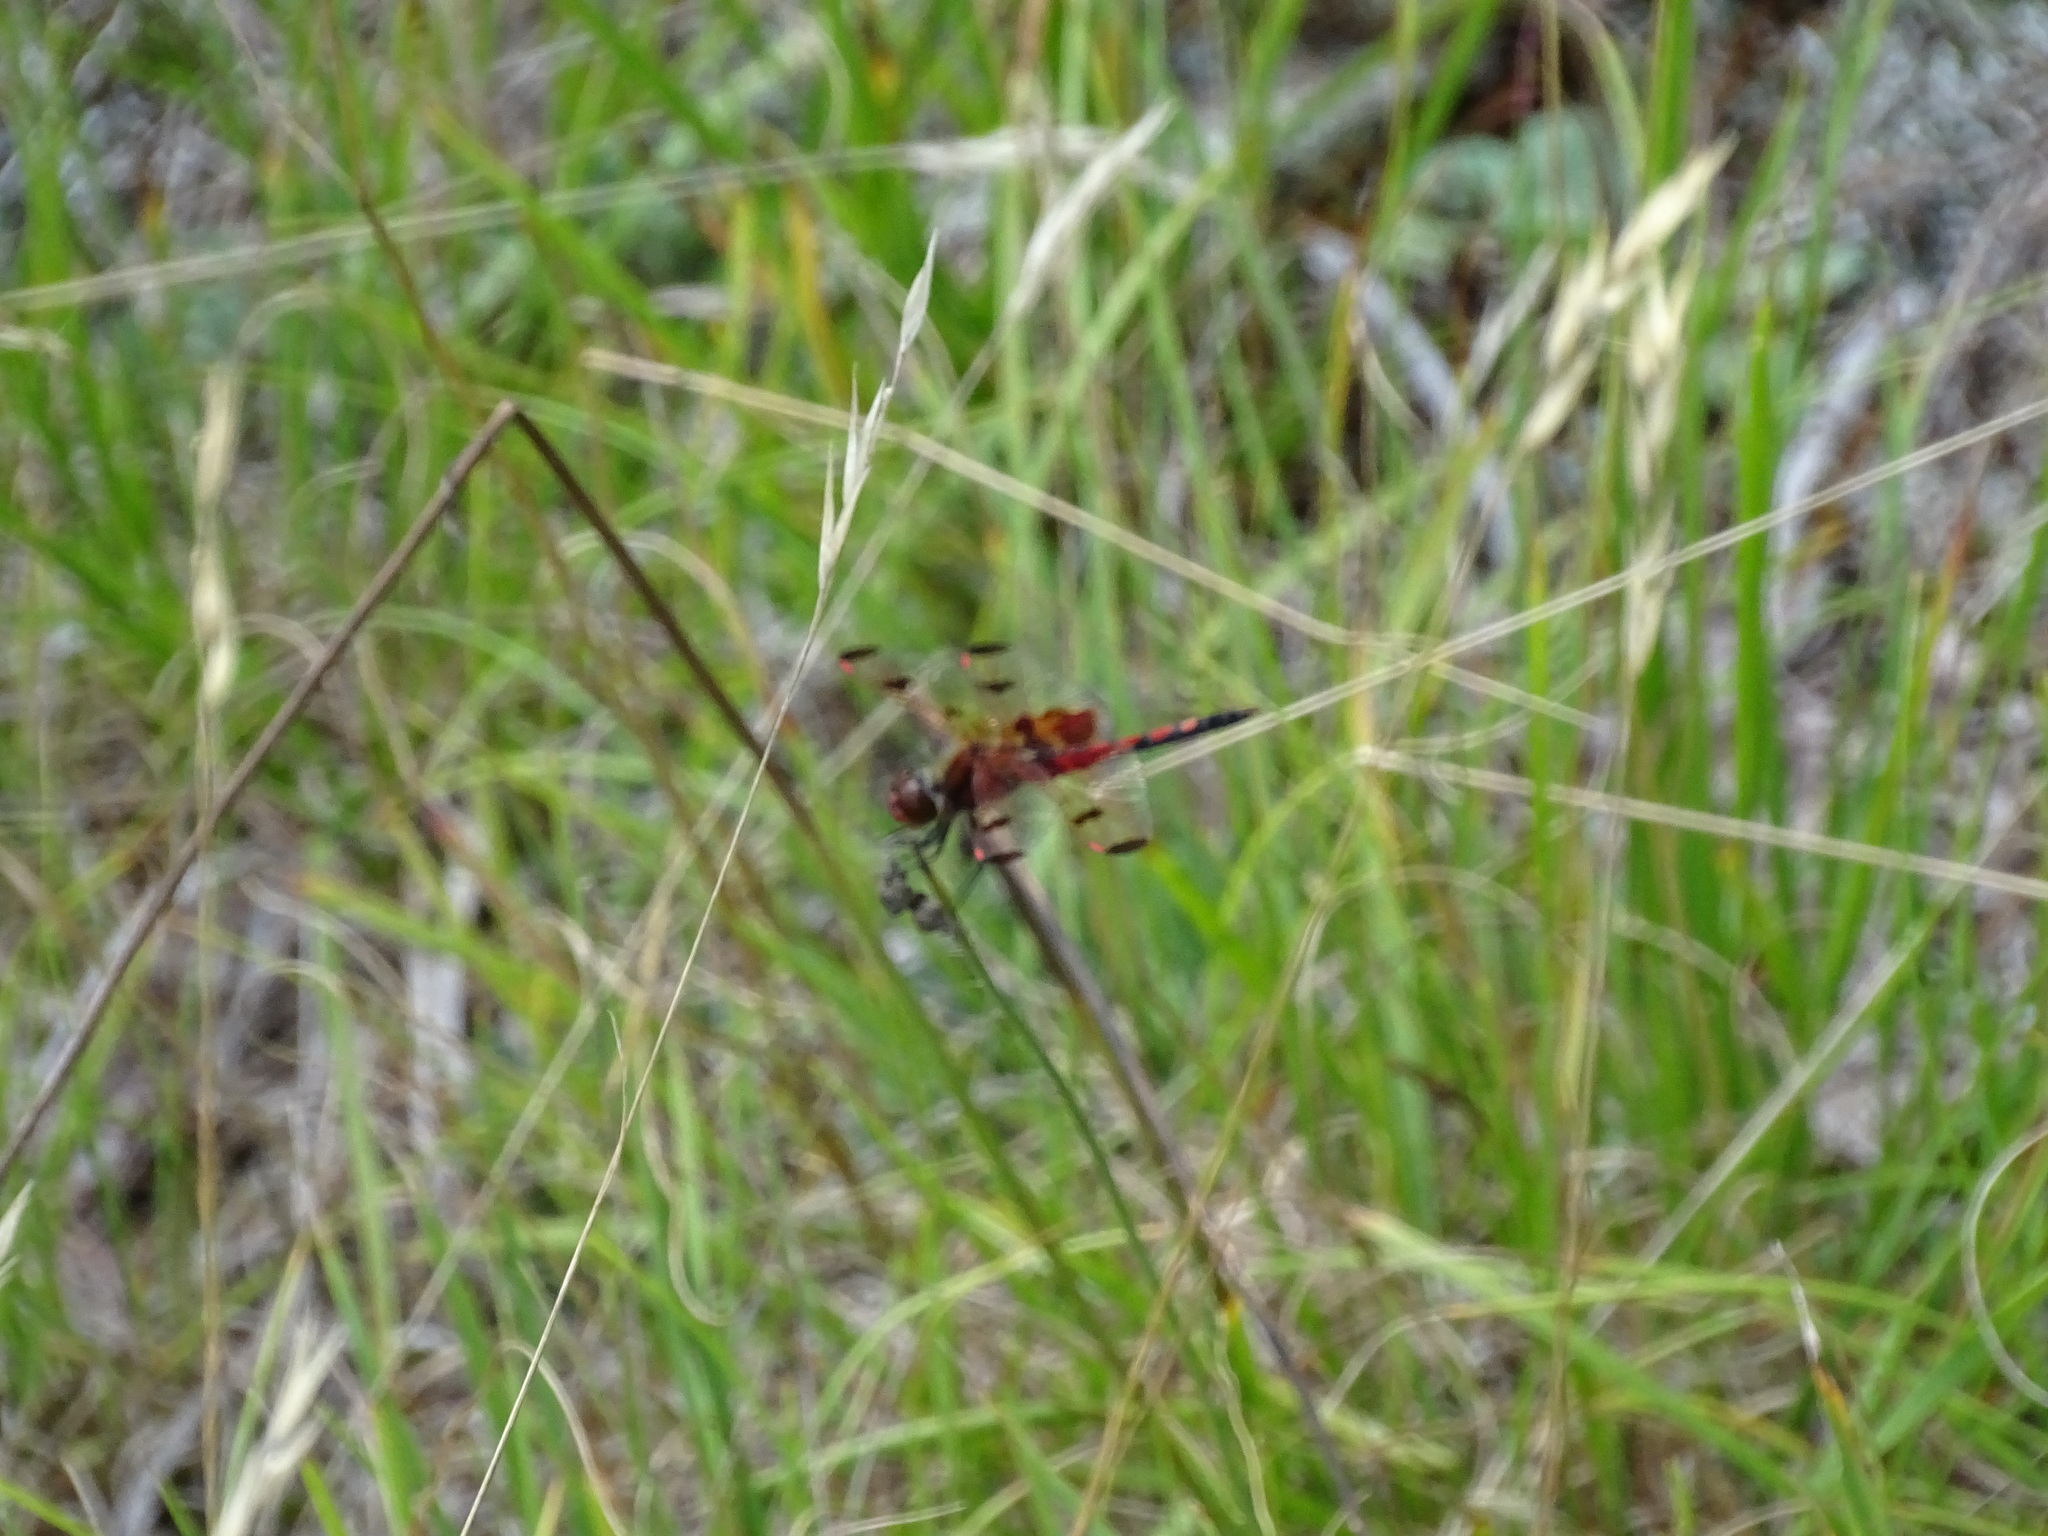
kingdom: Animalia
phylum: Arthropoda
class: Insecta
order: Odonata
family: Libellulidae
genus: Celithemis
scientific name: Celithemis elisa
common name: Calico pennant
